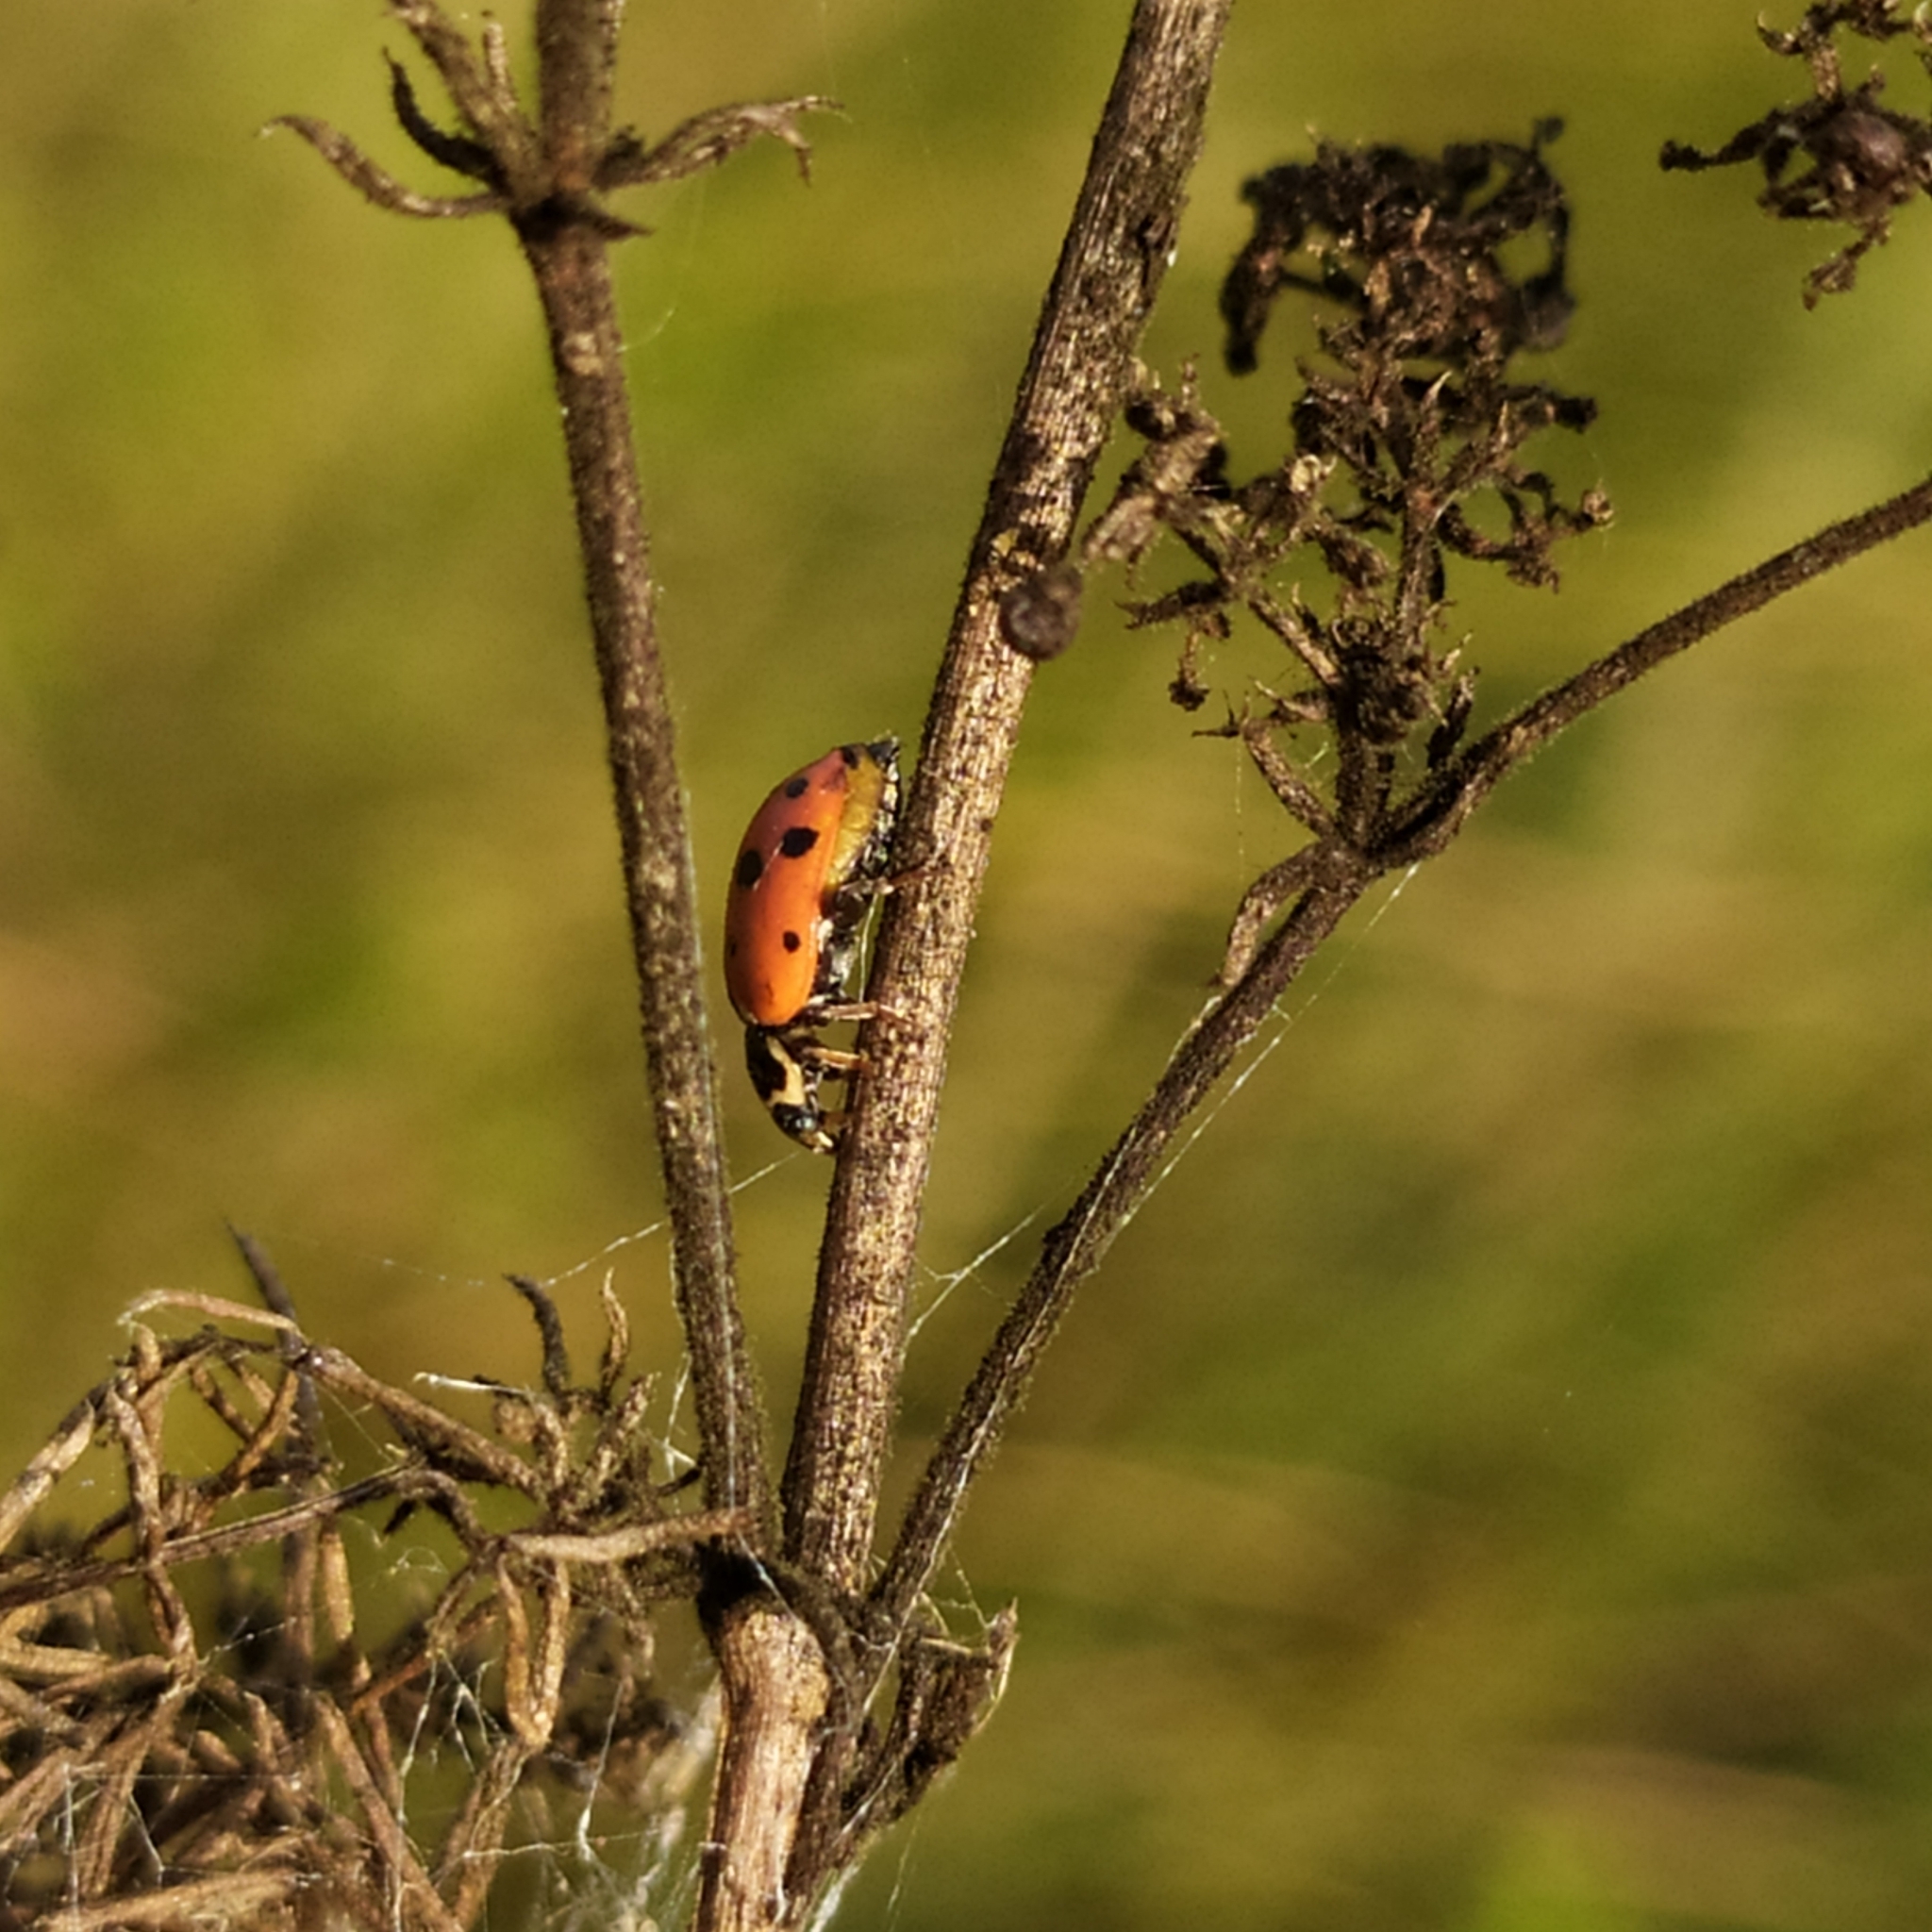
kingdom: Animalia
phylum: Arthropoda
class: Insecta
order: Coleoptera
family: Coccinellidae
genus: Hippodamia
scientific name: Hippodamia variegata
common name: Ladybird beetle
